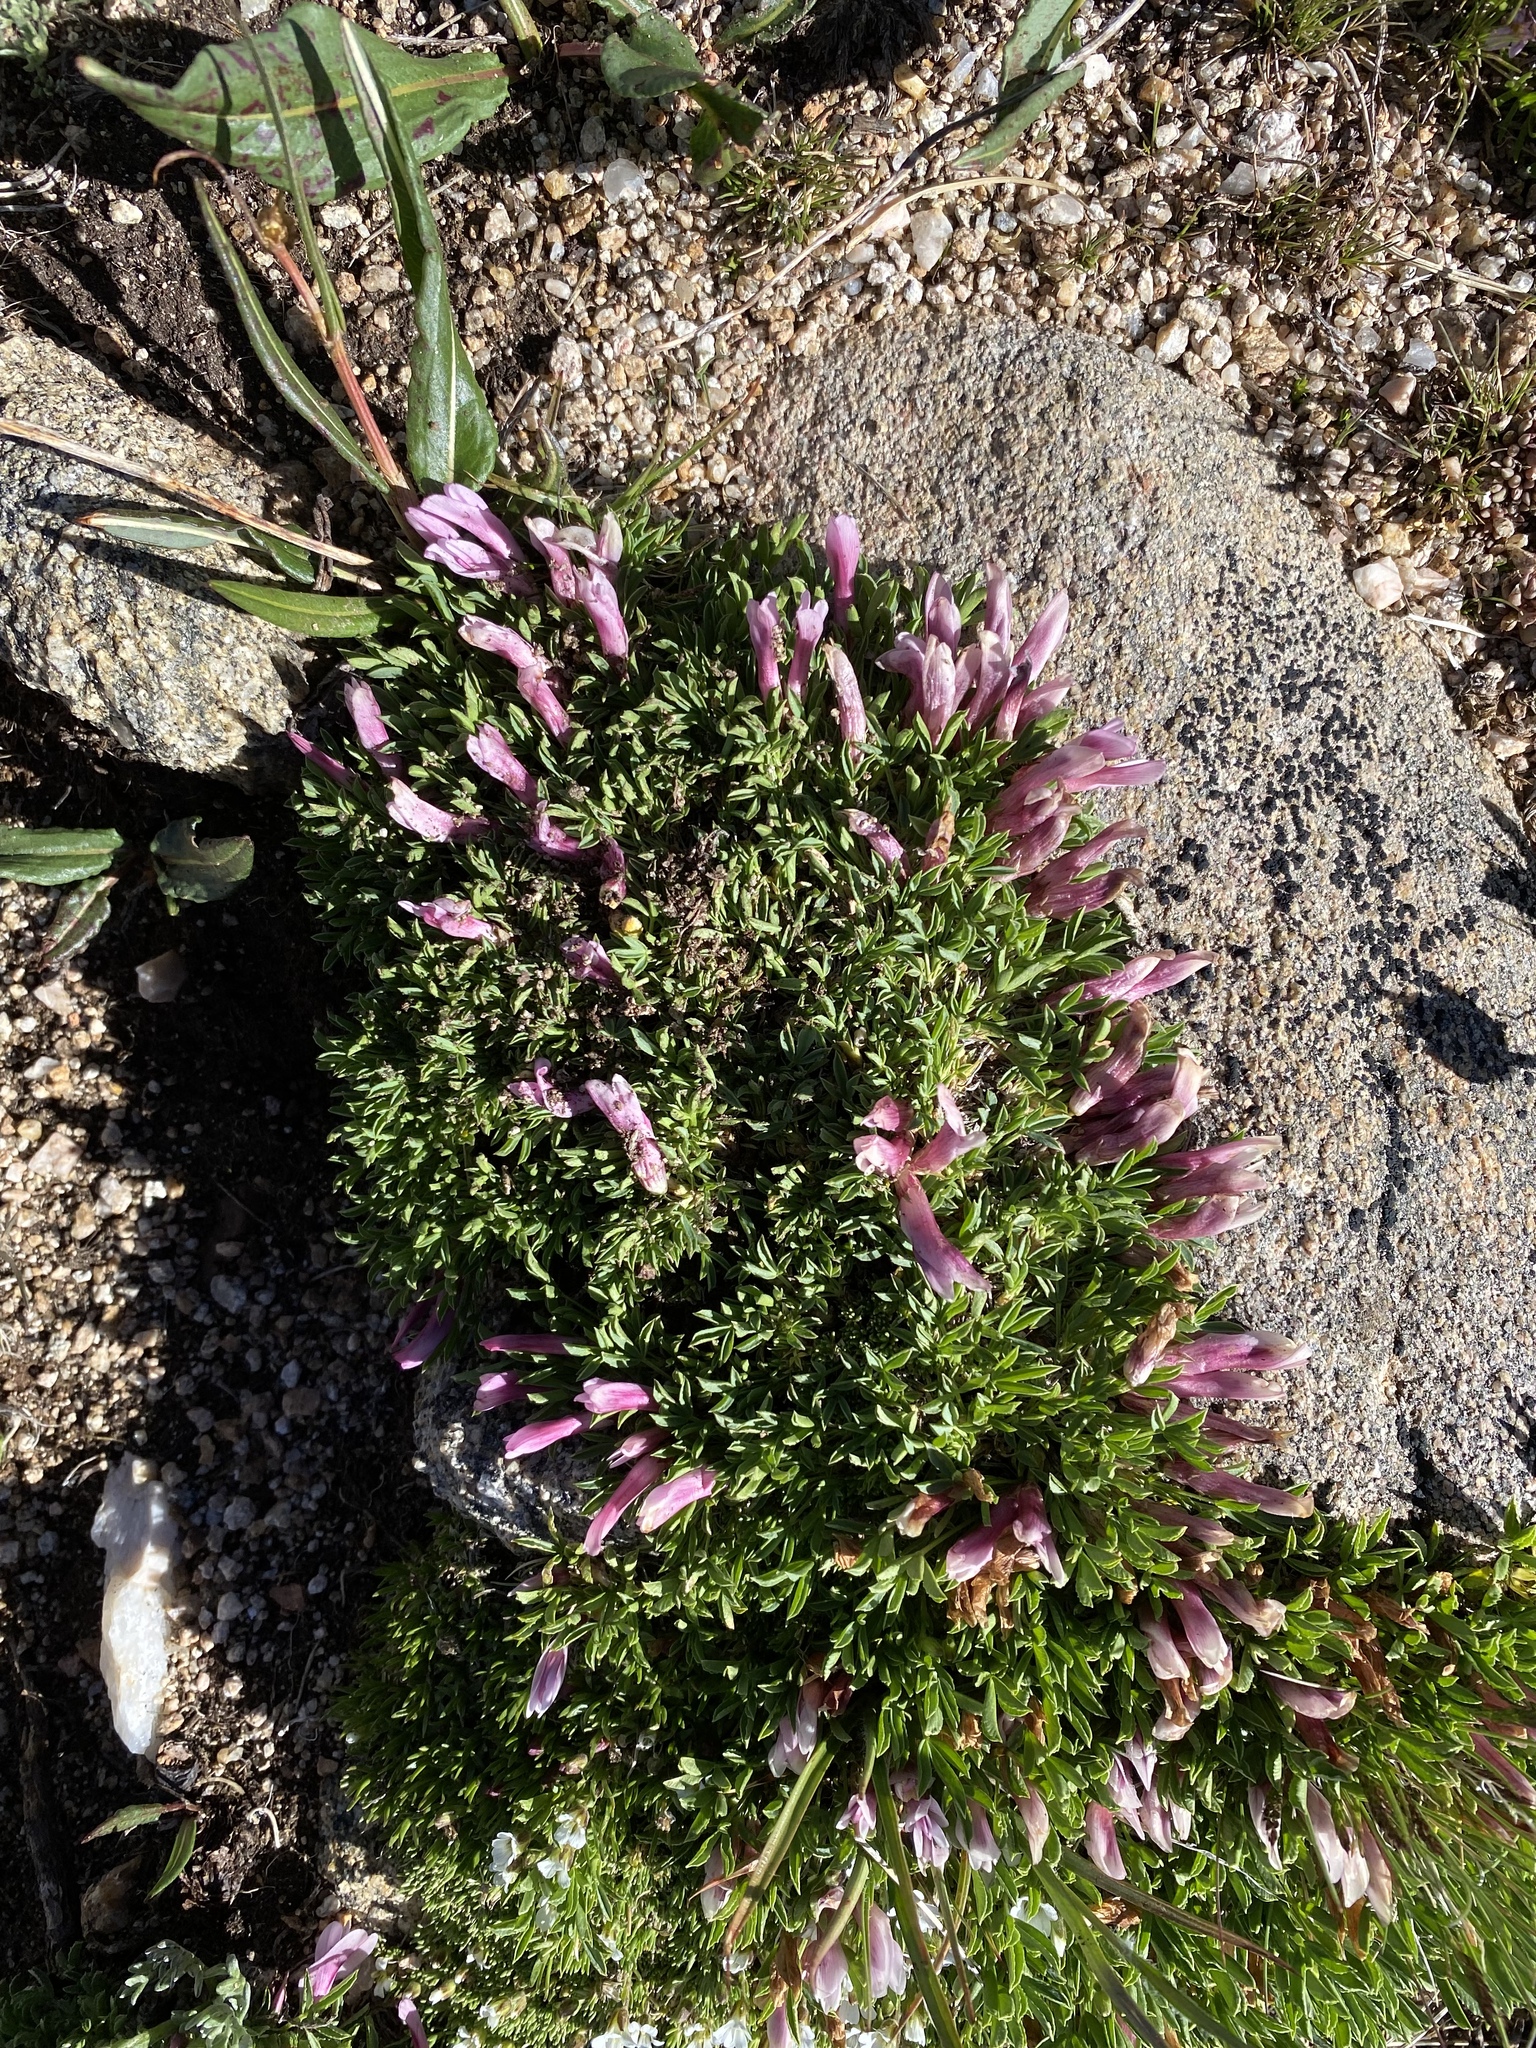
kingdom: Plantae
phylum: Tracheophyta
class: Magnoliopsida
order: Fabales
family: Fabaceae
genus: Trifolium
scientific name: Trifolium nanum
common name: Tundra clover
